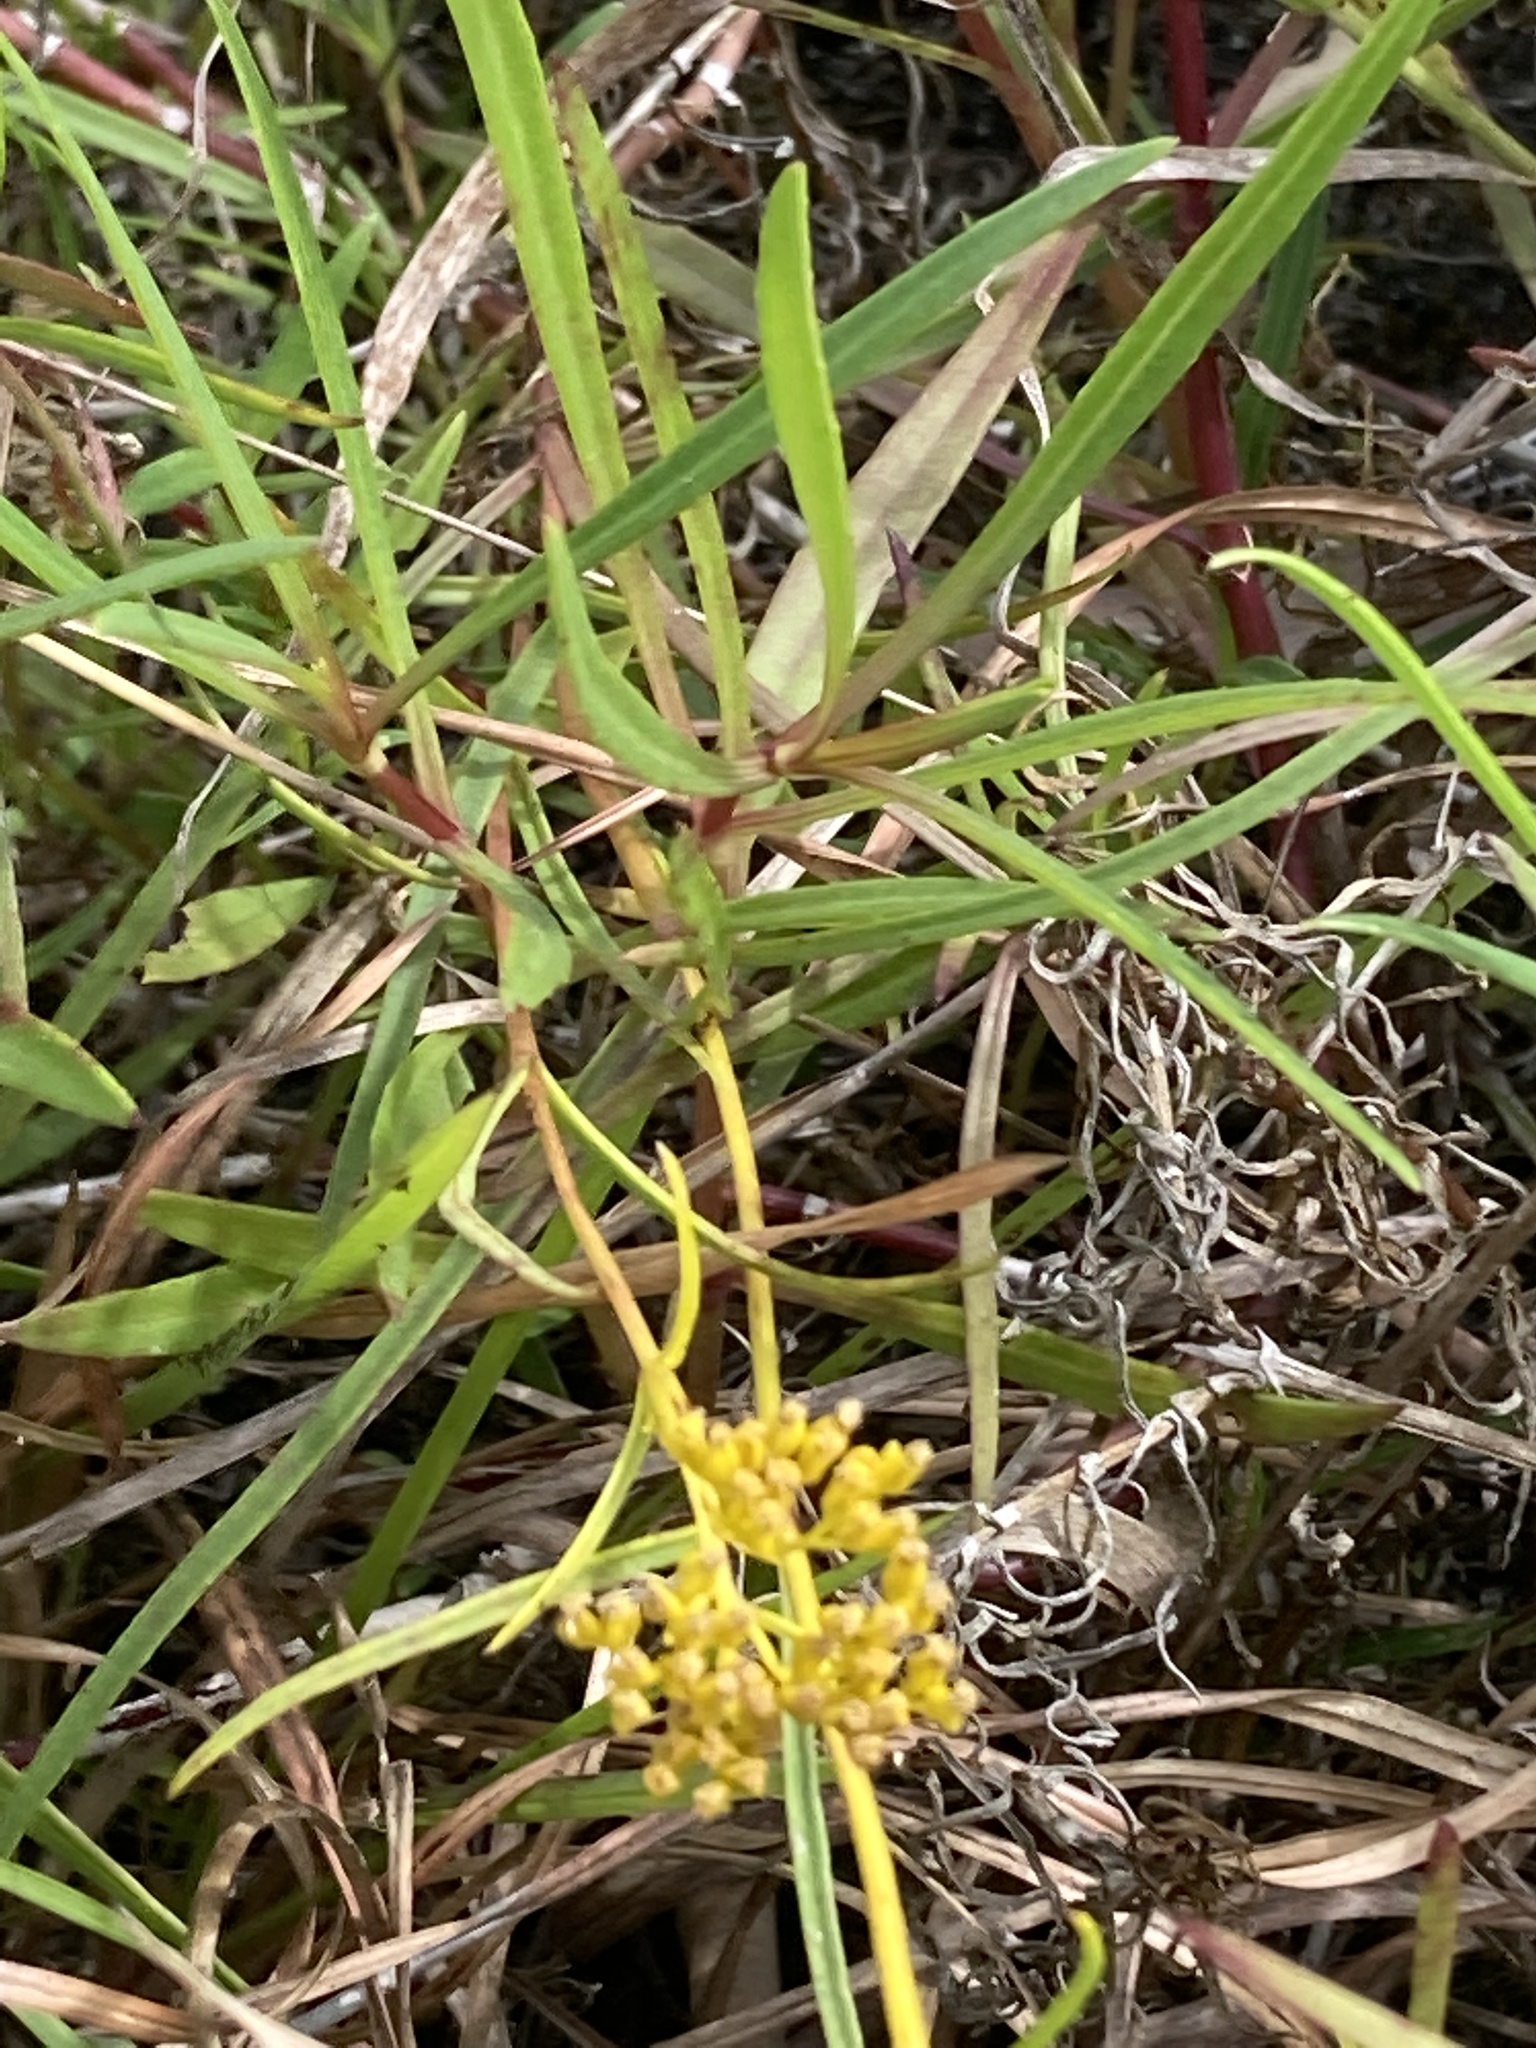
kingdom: Plantae
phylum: Tracheophyta
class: Magnoliopsida
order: Asterales
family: Asteraceae
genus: Flaveria
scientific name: Flaveria linearis
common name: Yellowtop
